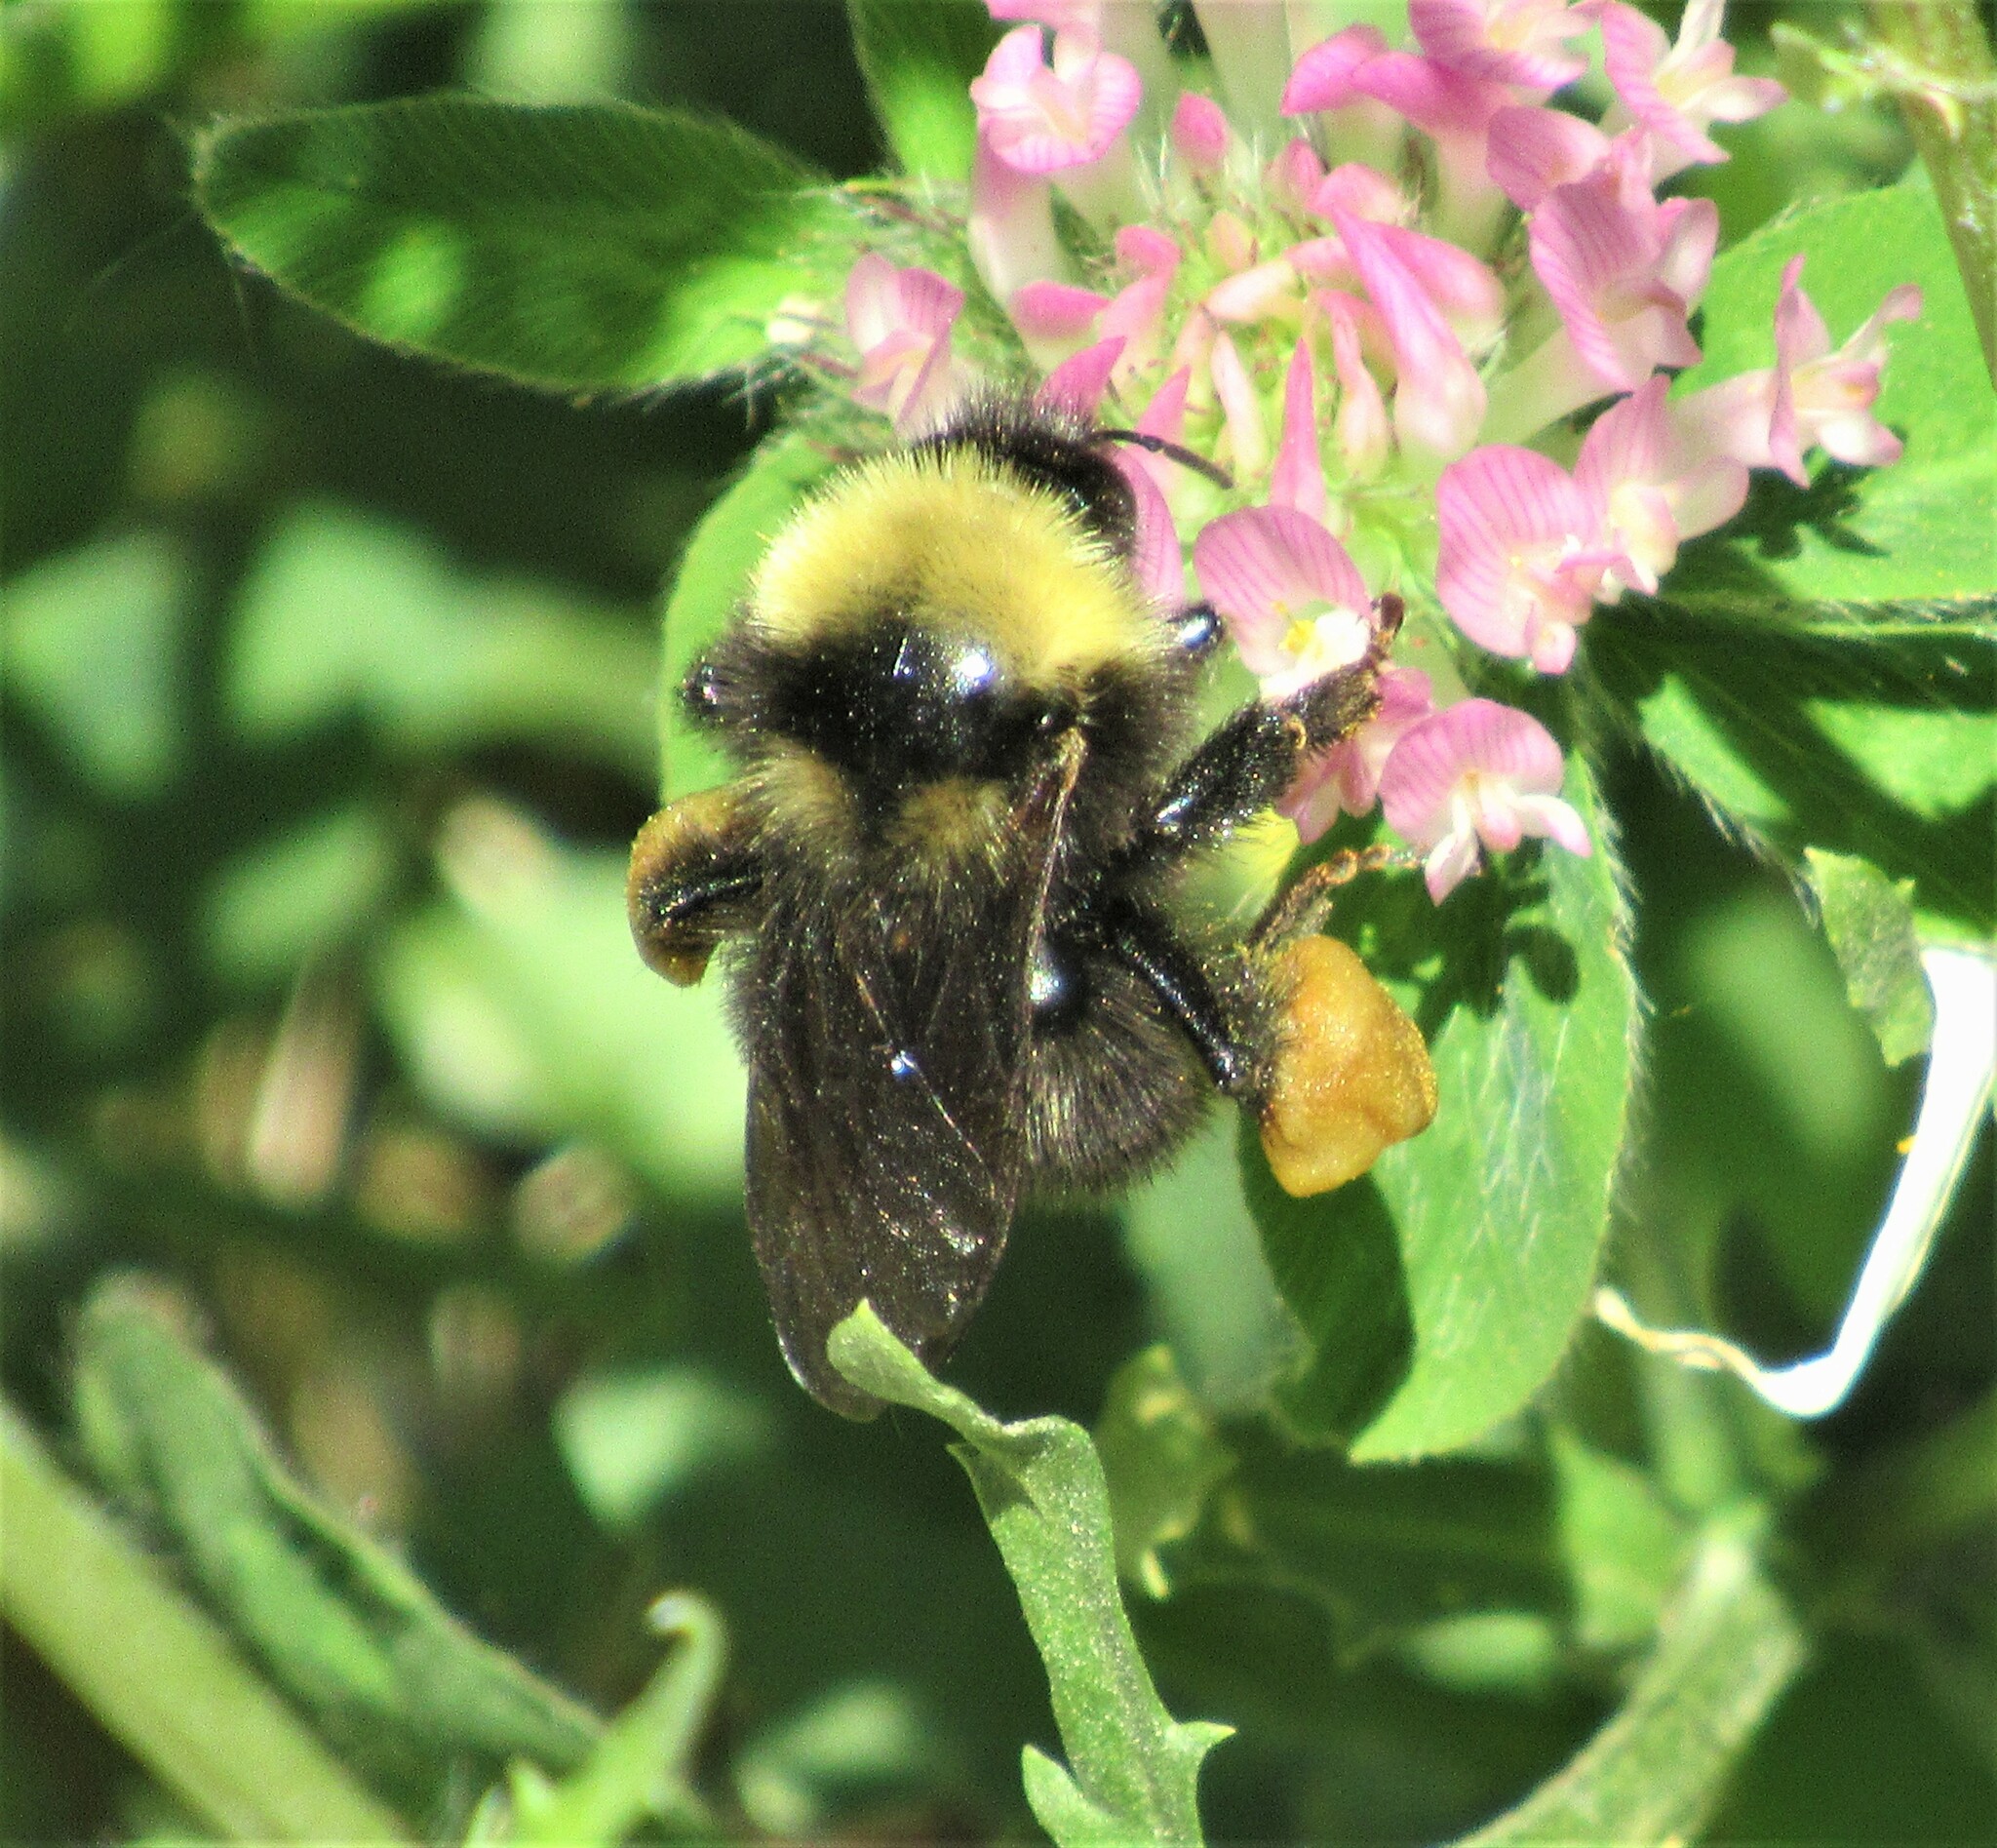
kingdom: Animalia
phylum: Arthropoda
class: Insecta
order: Hymenoptera
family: Apidae
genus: Bombus
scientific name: Bombus californicus
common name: California bumble bee
